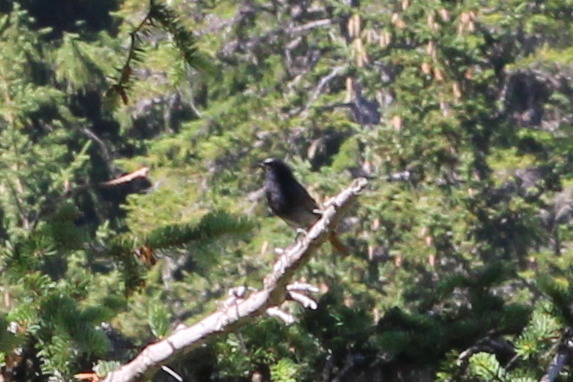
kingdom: Animalia
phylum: Chordata
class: Aves
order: Passeriformes
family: Muscicapidae
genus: Phoenicurus
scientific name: Phoenicurus ochruros
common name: Black redstart
